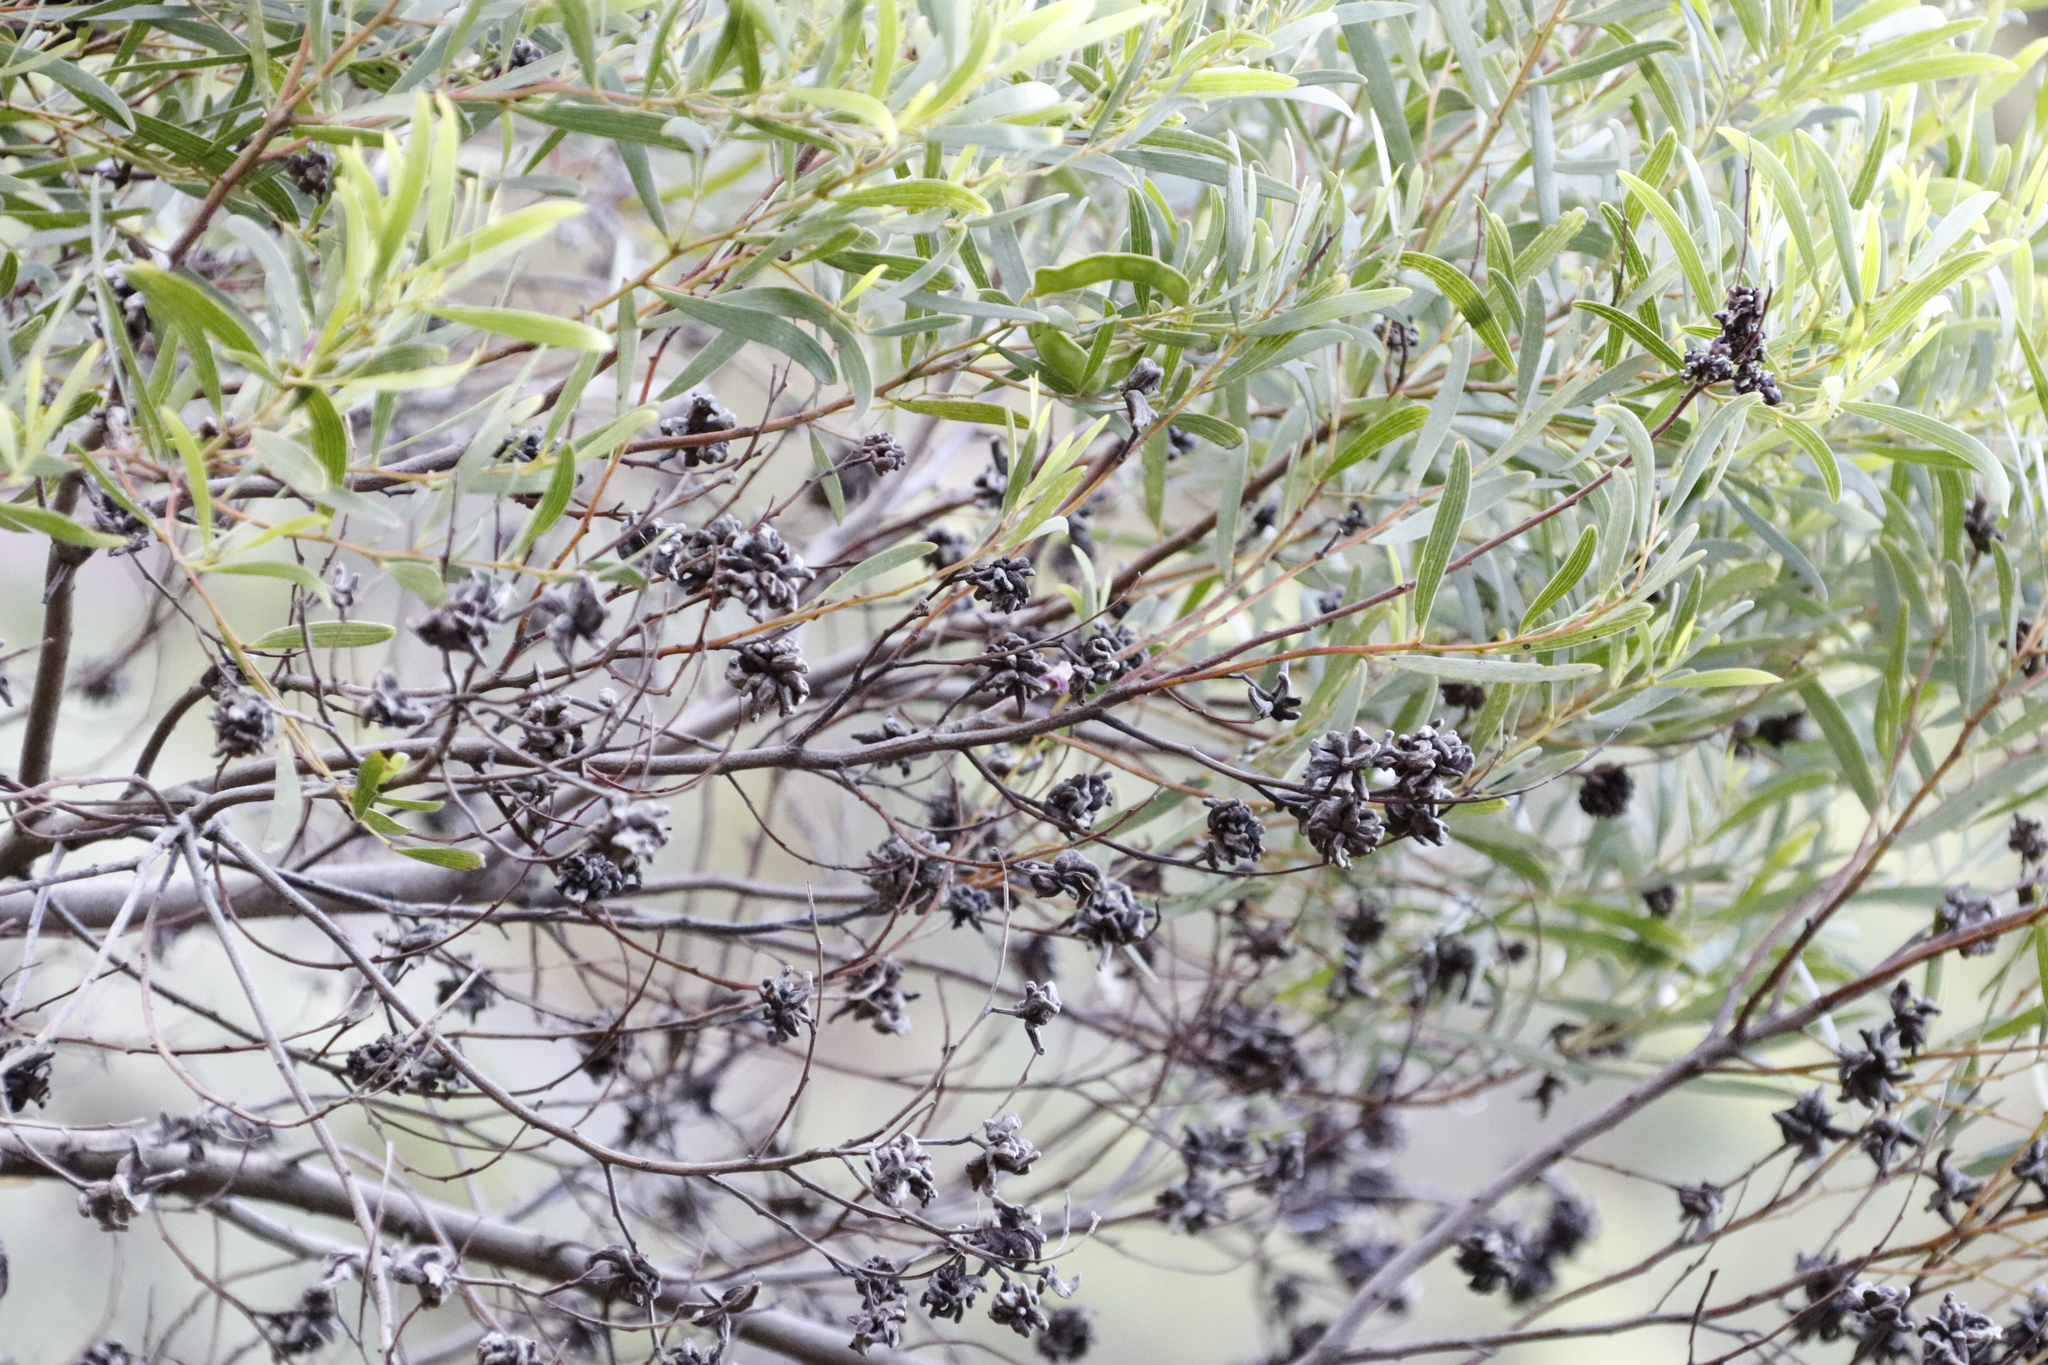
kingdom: Animalia
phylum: Arthropoda
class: Insecta
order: Diptera
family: Cecidomyiidae
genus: Dasineura
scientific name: Dasineura dielsi
